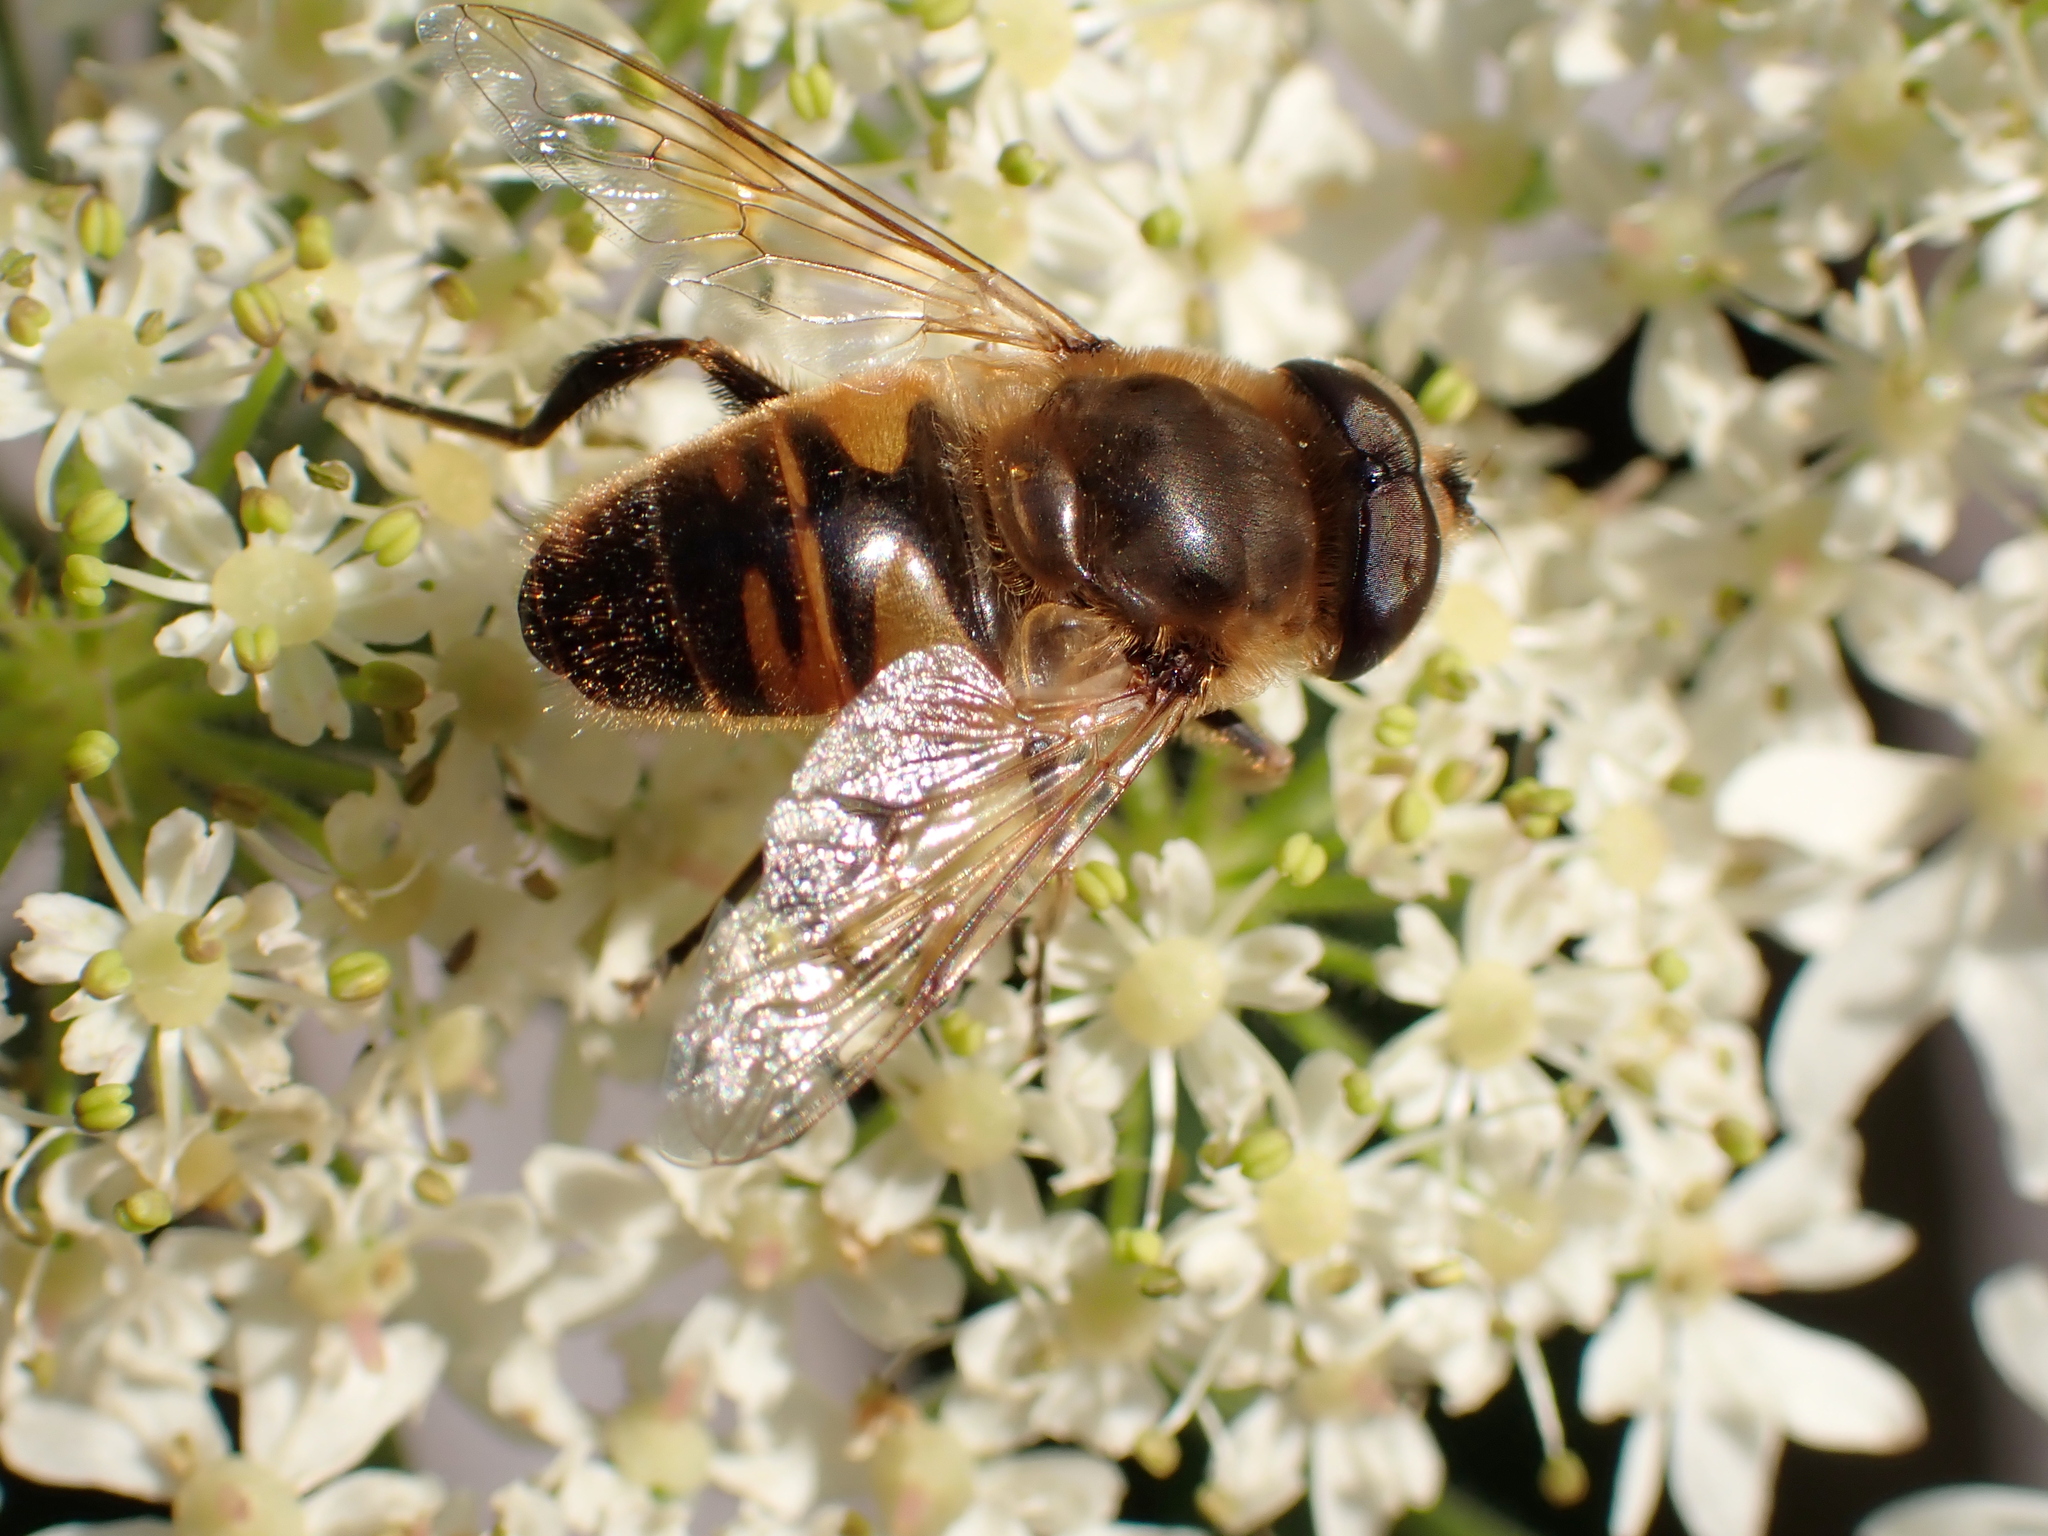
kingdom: Animalia
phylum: Arthropoda
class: Insecta
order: Diptera
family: Syrphidae
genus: Eristalis
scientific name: Eristalis tenax
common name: Drone fly
